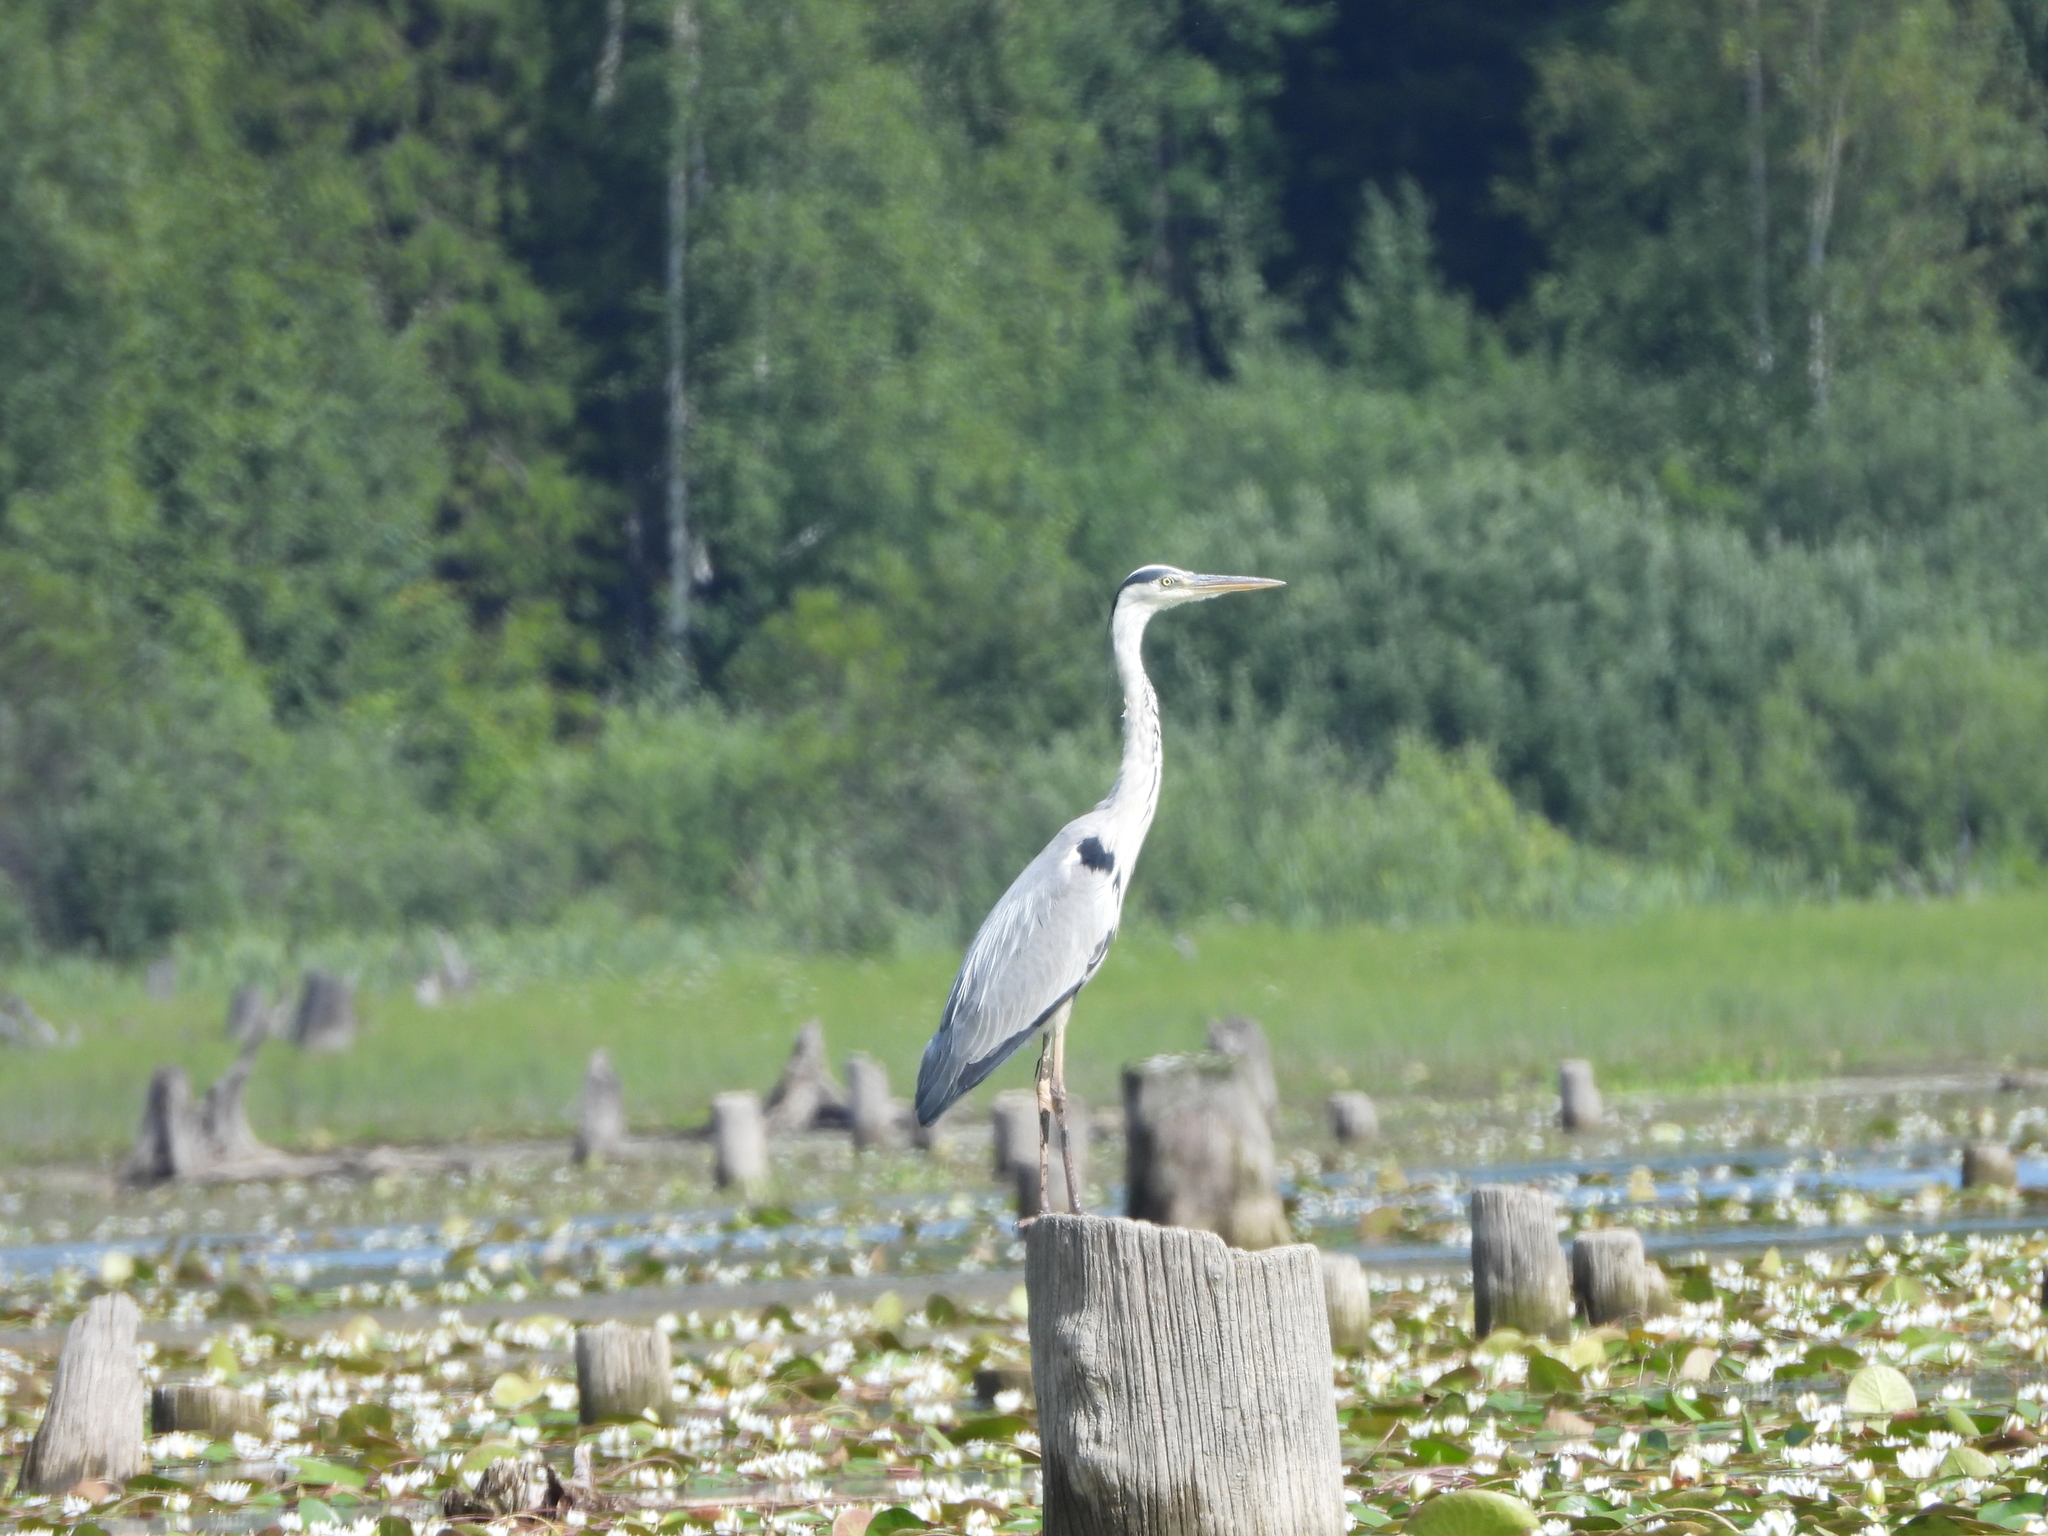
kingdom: Animalia
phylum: Chordata
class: Aves
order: Pelecaniformes
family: Ardeidae
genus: Ardea
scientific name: Ardea cinerea
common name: Grey heron
